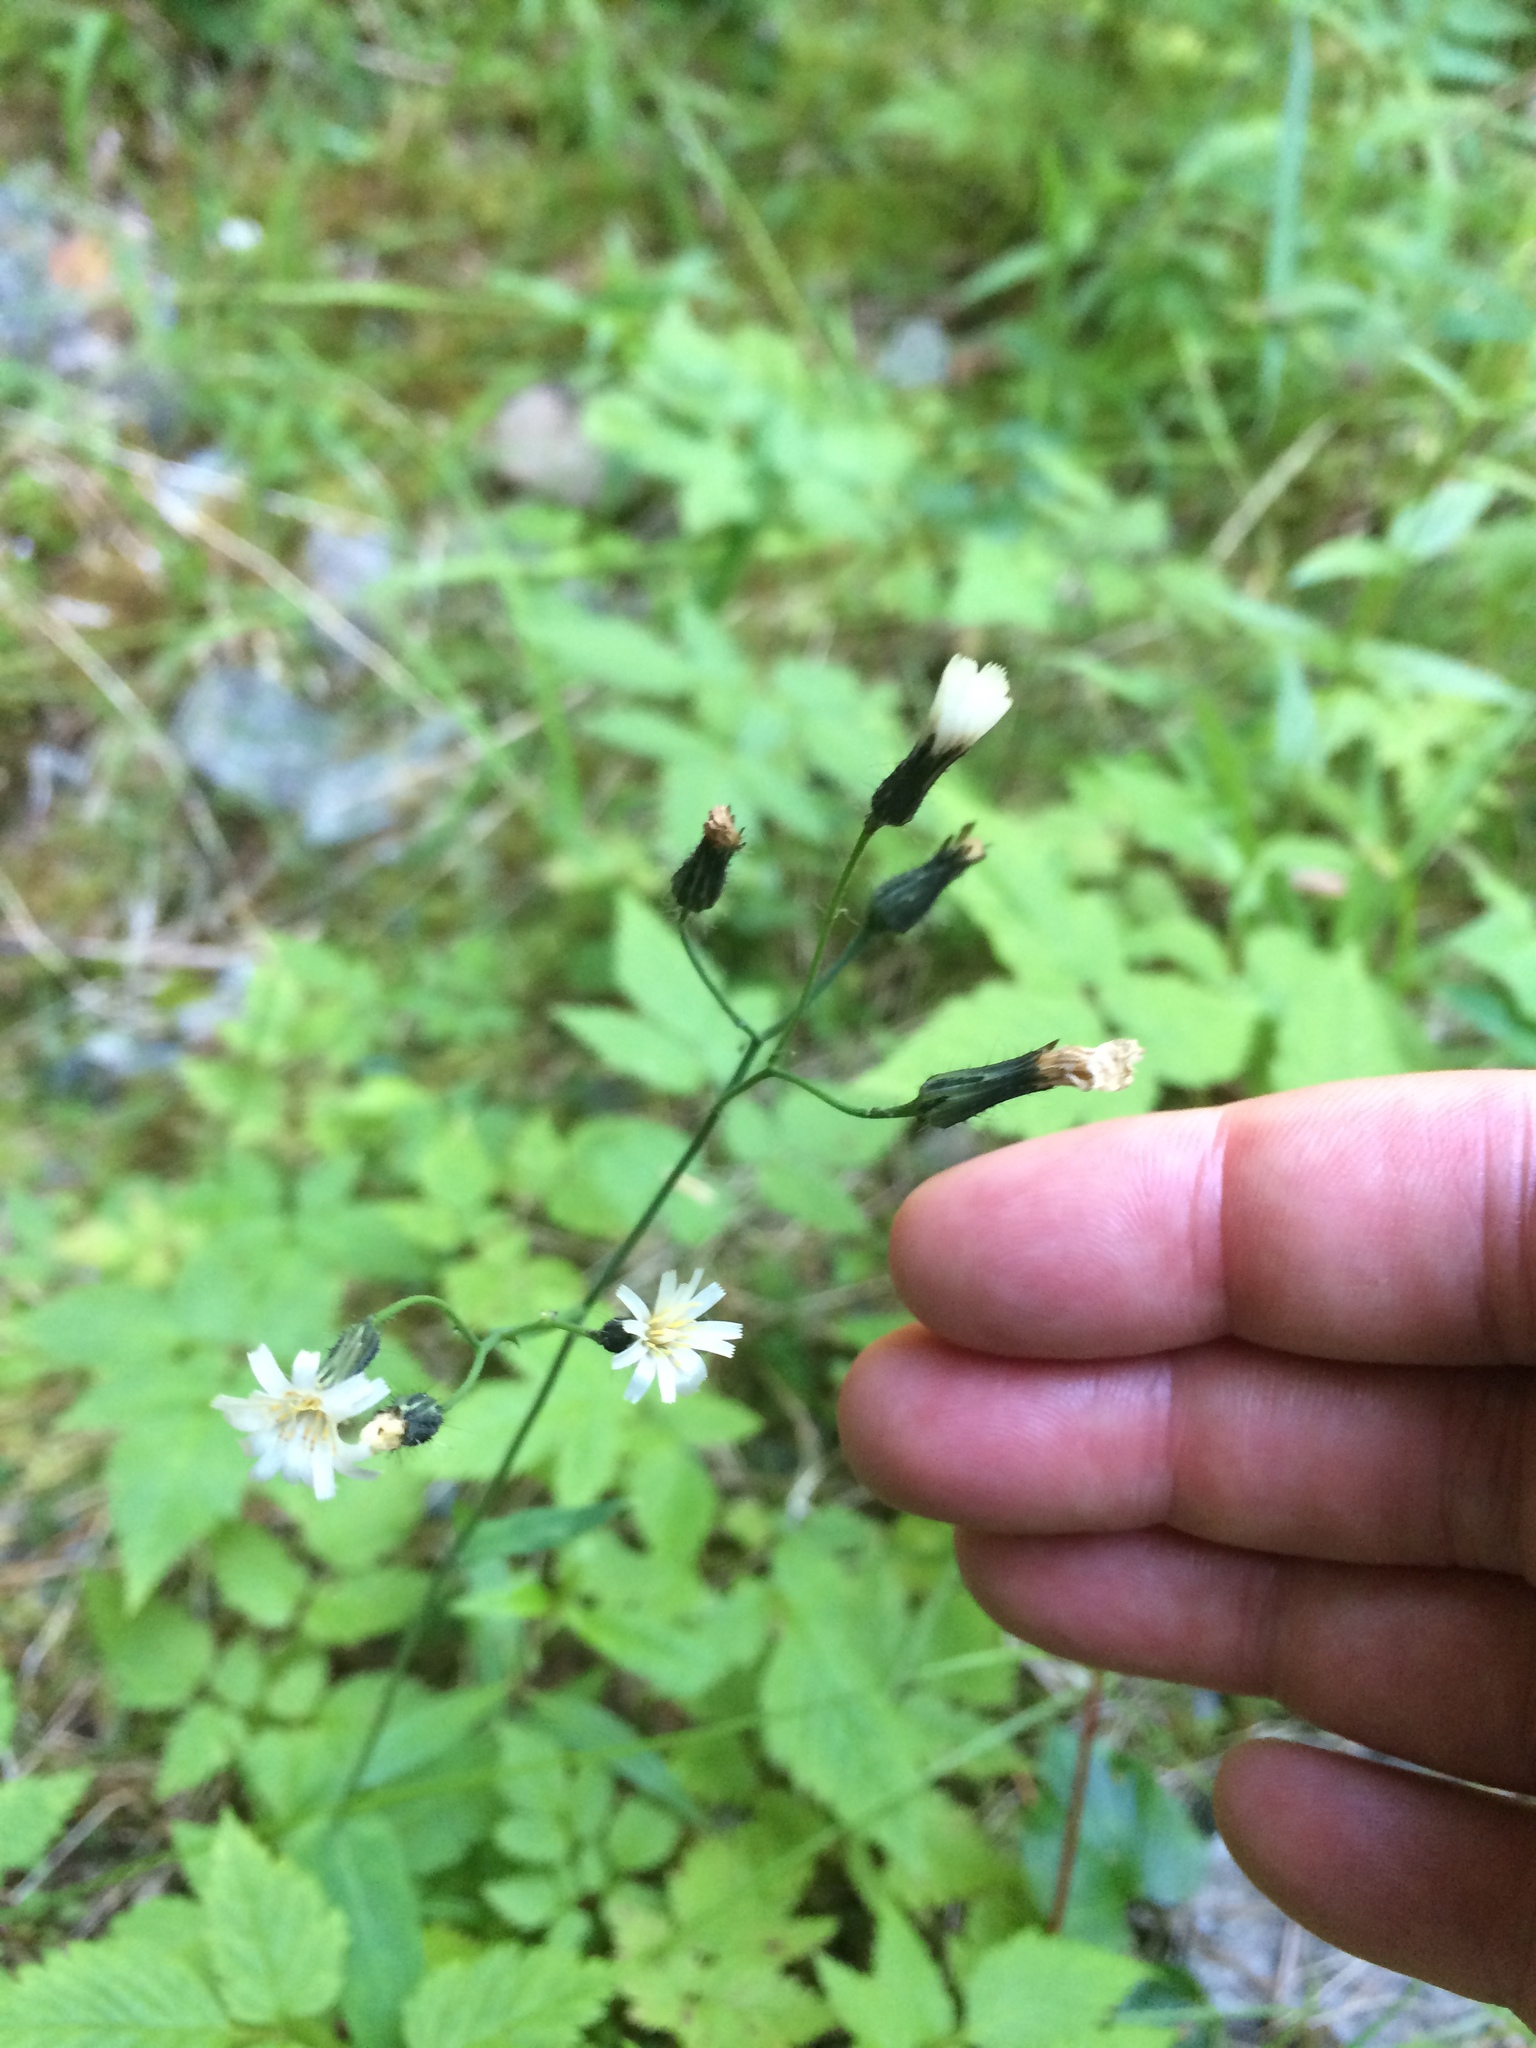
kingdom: Plantae
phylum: Tracheophyta
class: Magnoliopsida
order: Asterales
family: Asteraceae
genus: Hieracium
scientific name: Hieracium albiflorum
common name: White hawkweed
